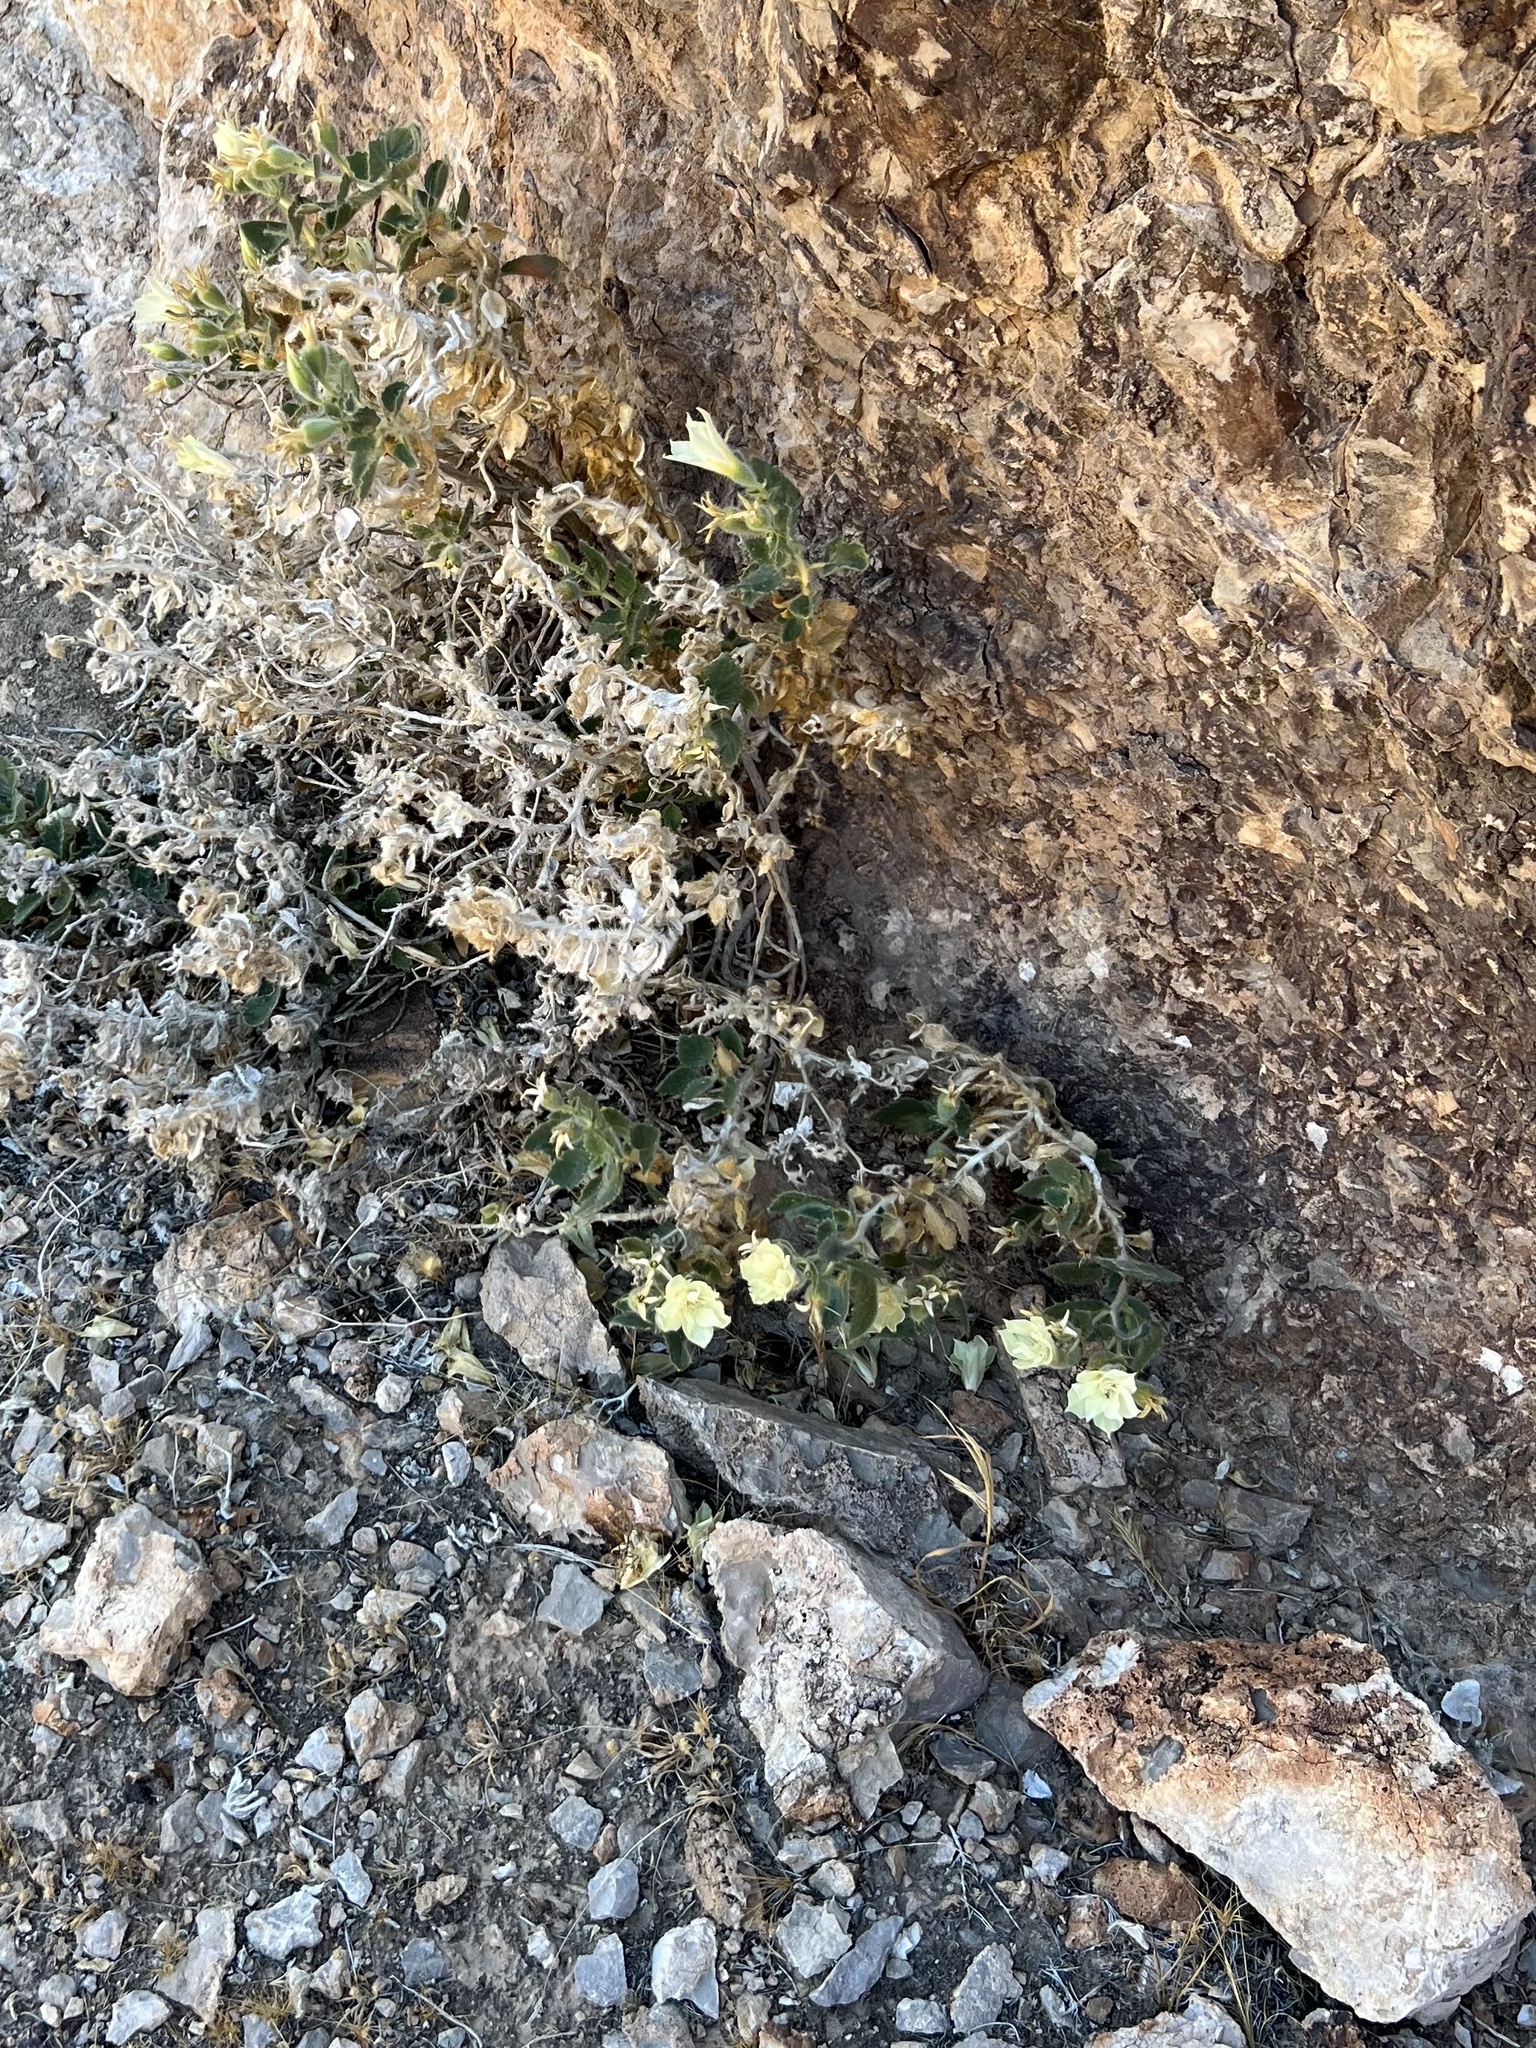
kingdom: Plantae
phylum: Tracheophyta
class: Magnoliopsida
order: Cornales
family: Loasaceae
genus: Eucnide
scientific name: Eucnide urens
